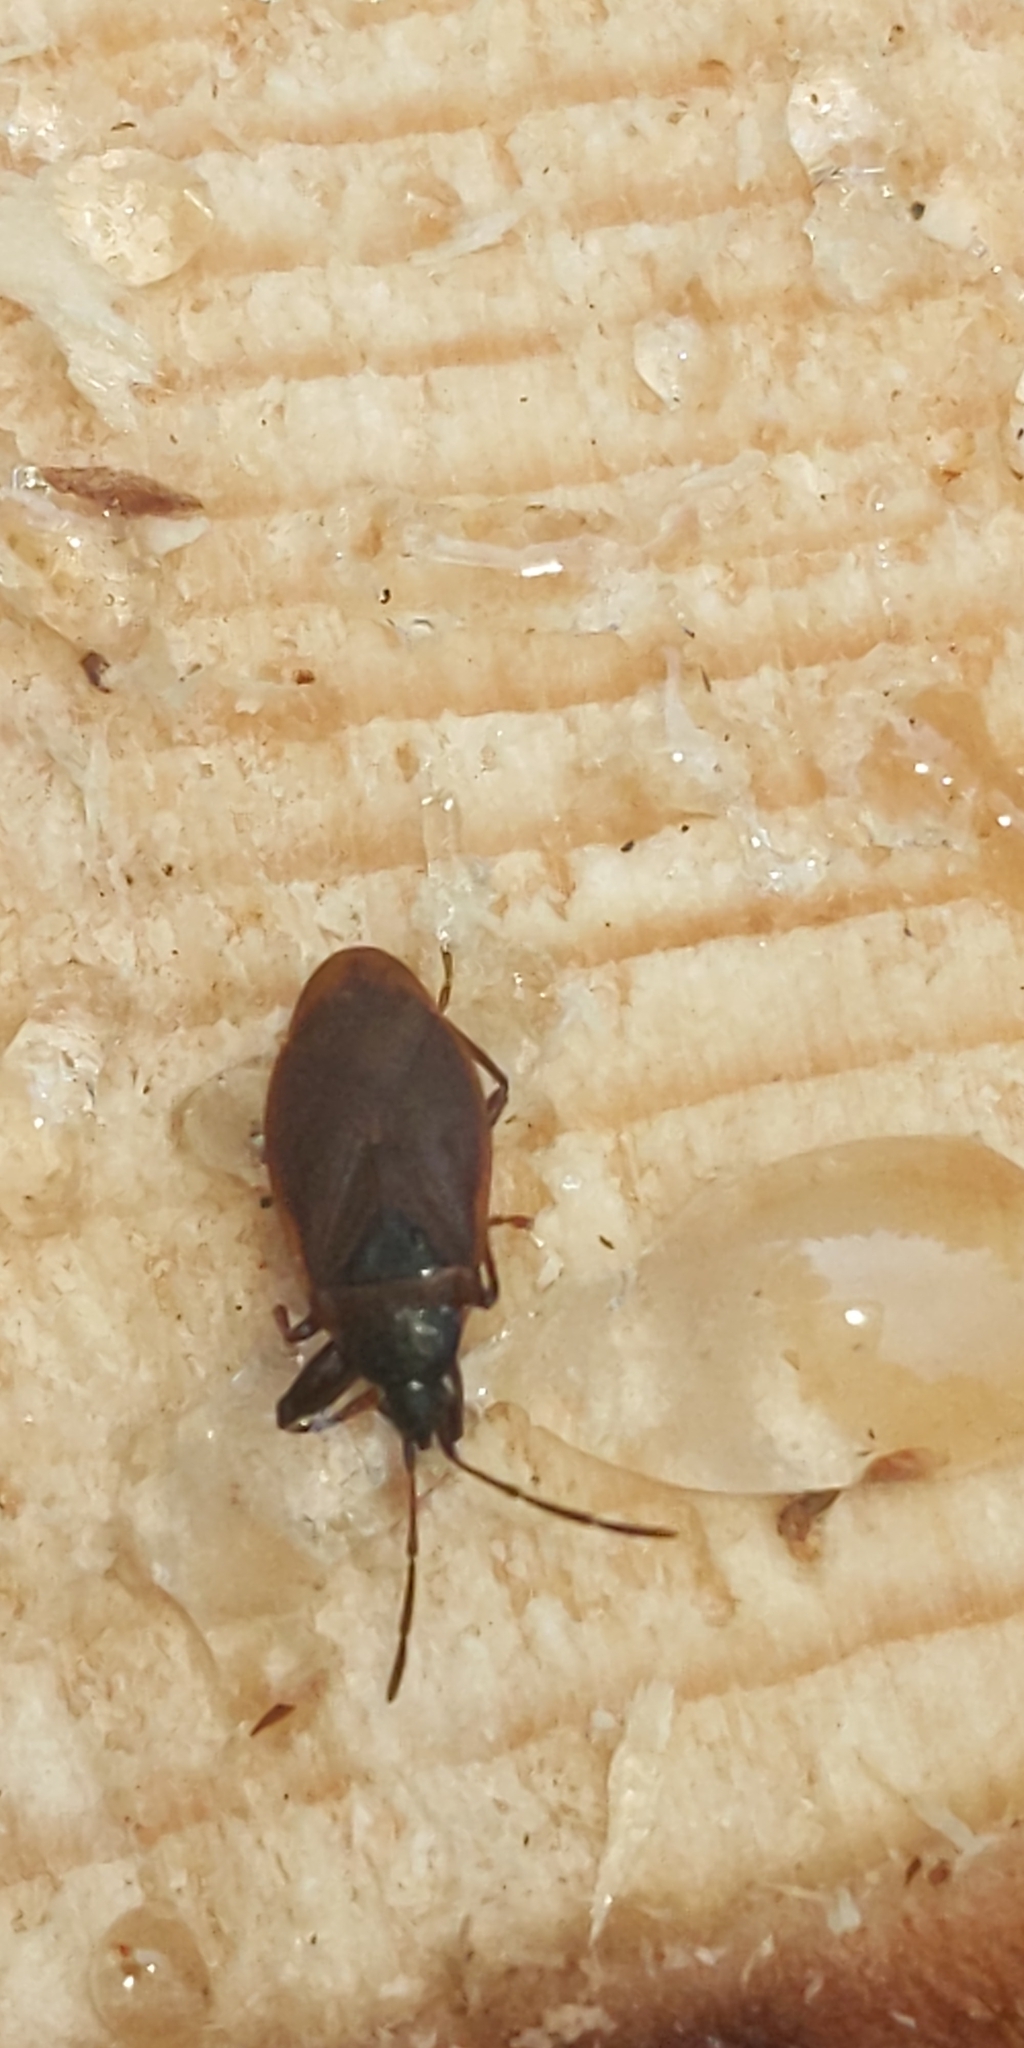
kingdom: Animalia
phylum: Arthropoda
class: Insecta
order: Hemiptera
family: Rhyparochromidae
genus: Gastrodes
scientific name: Gastrodes grossipes
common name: Pine cone bug
